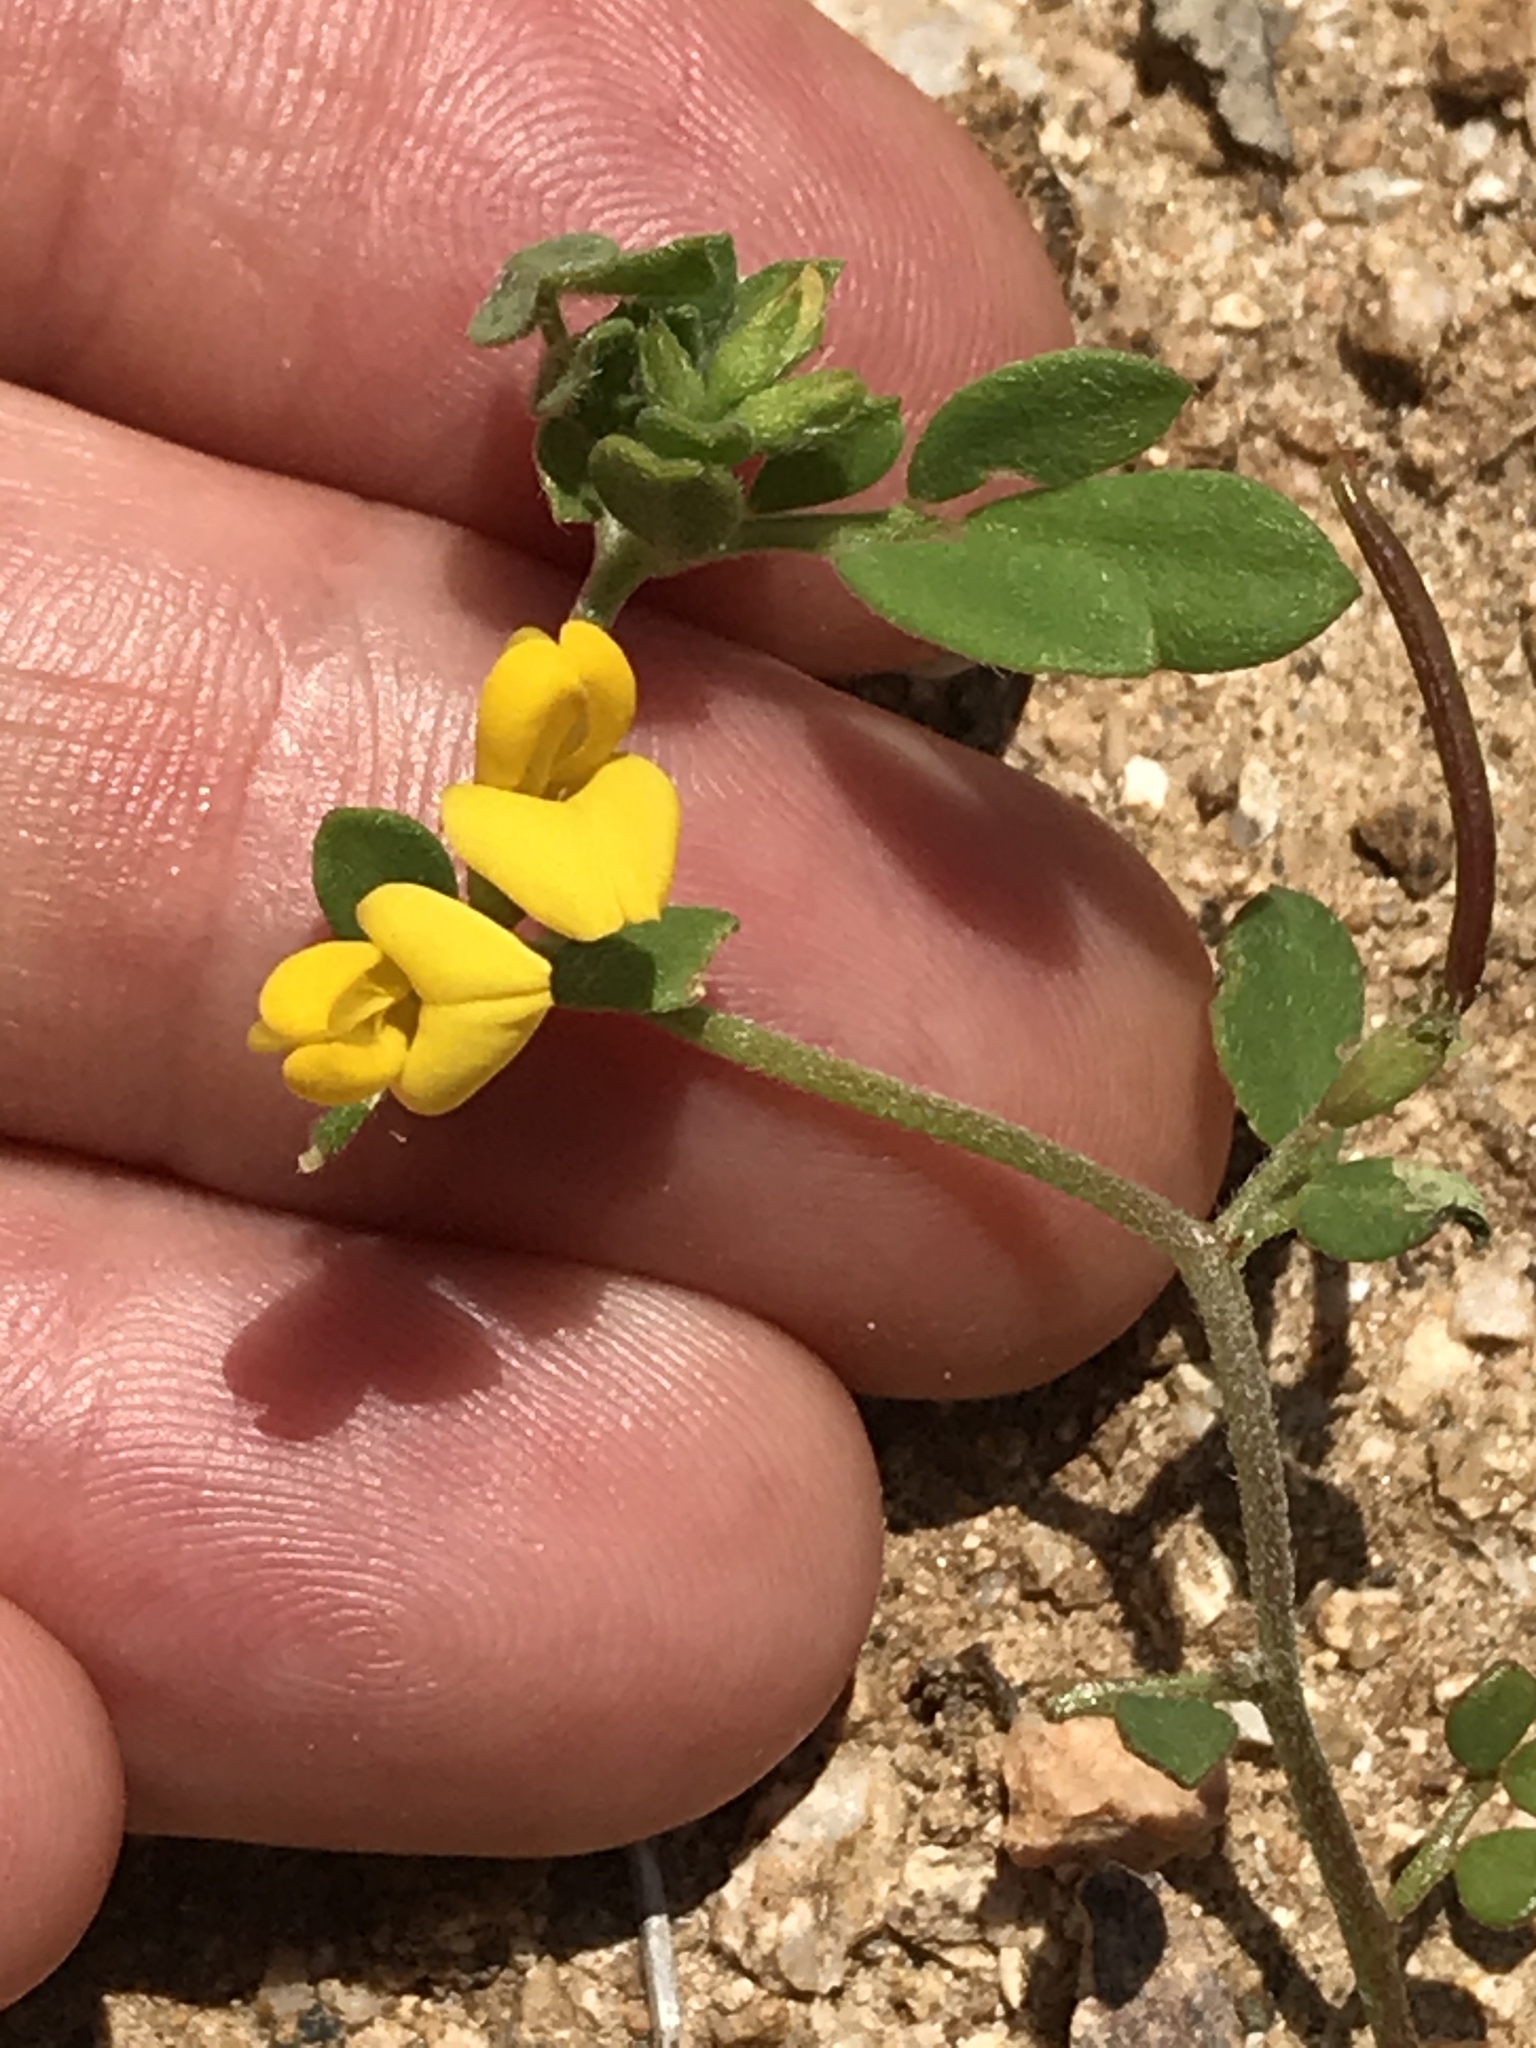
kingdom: Plantae
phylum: Tracheophyta
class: Magnoliopsida
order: Fabales
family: Fabaceae
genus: Acmispon
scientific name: Acmispon maritimus
